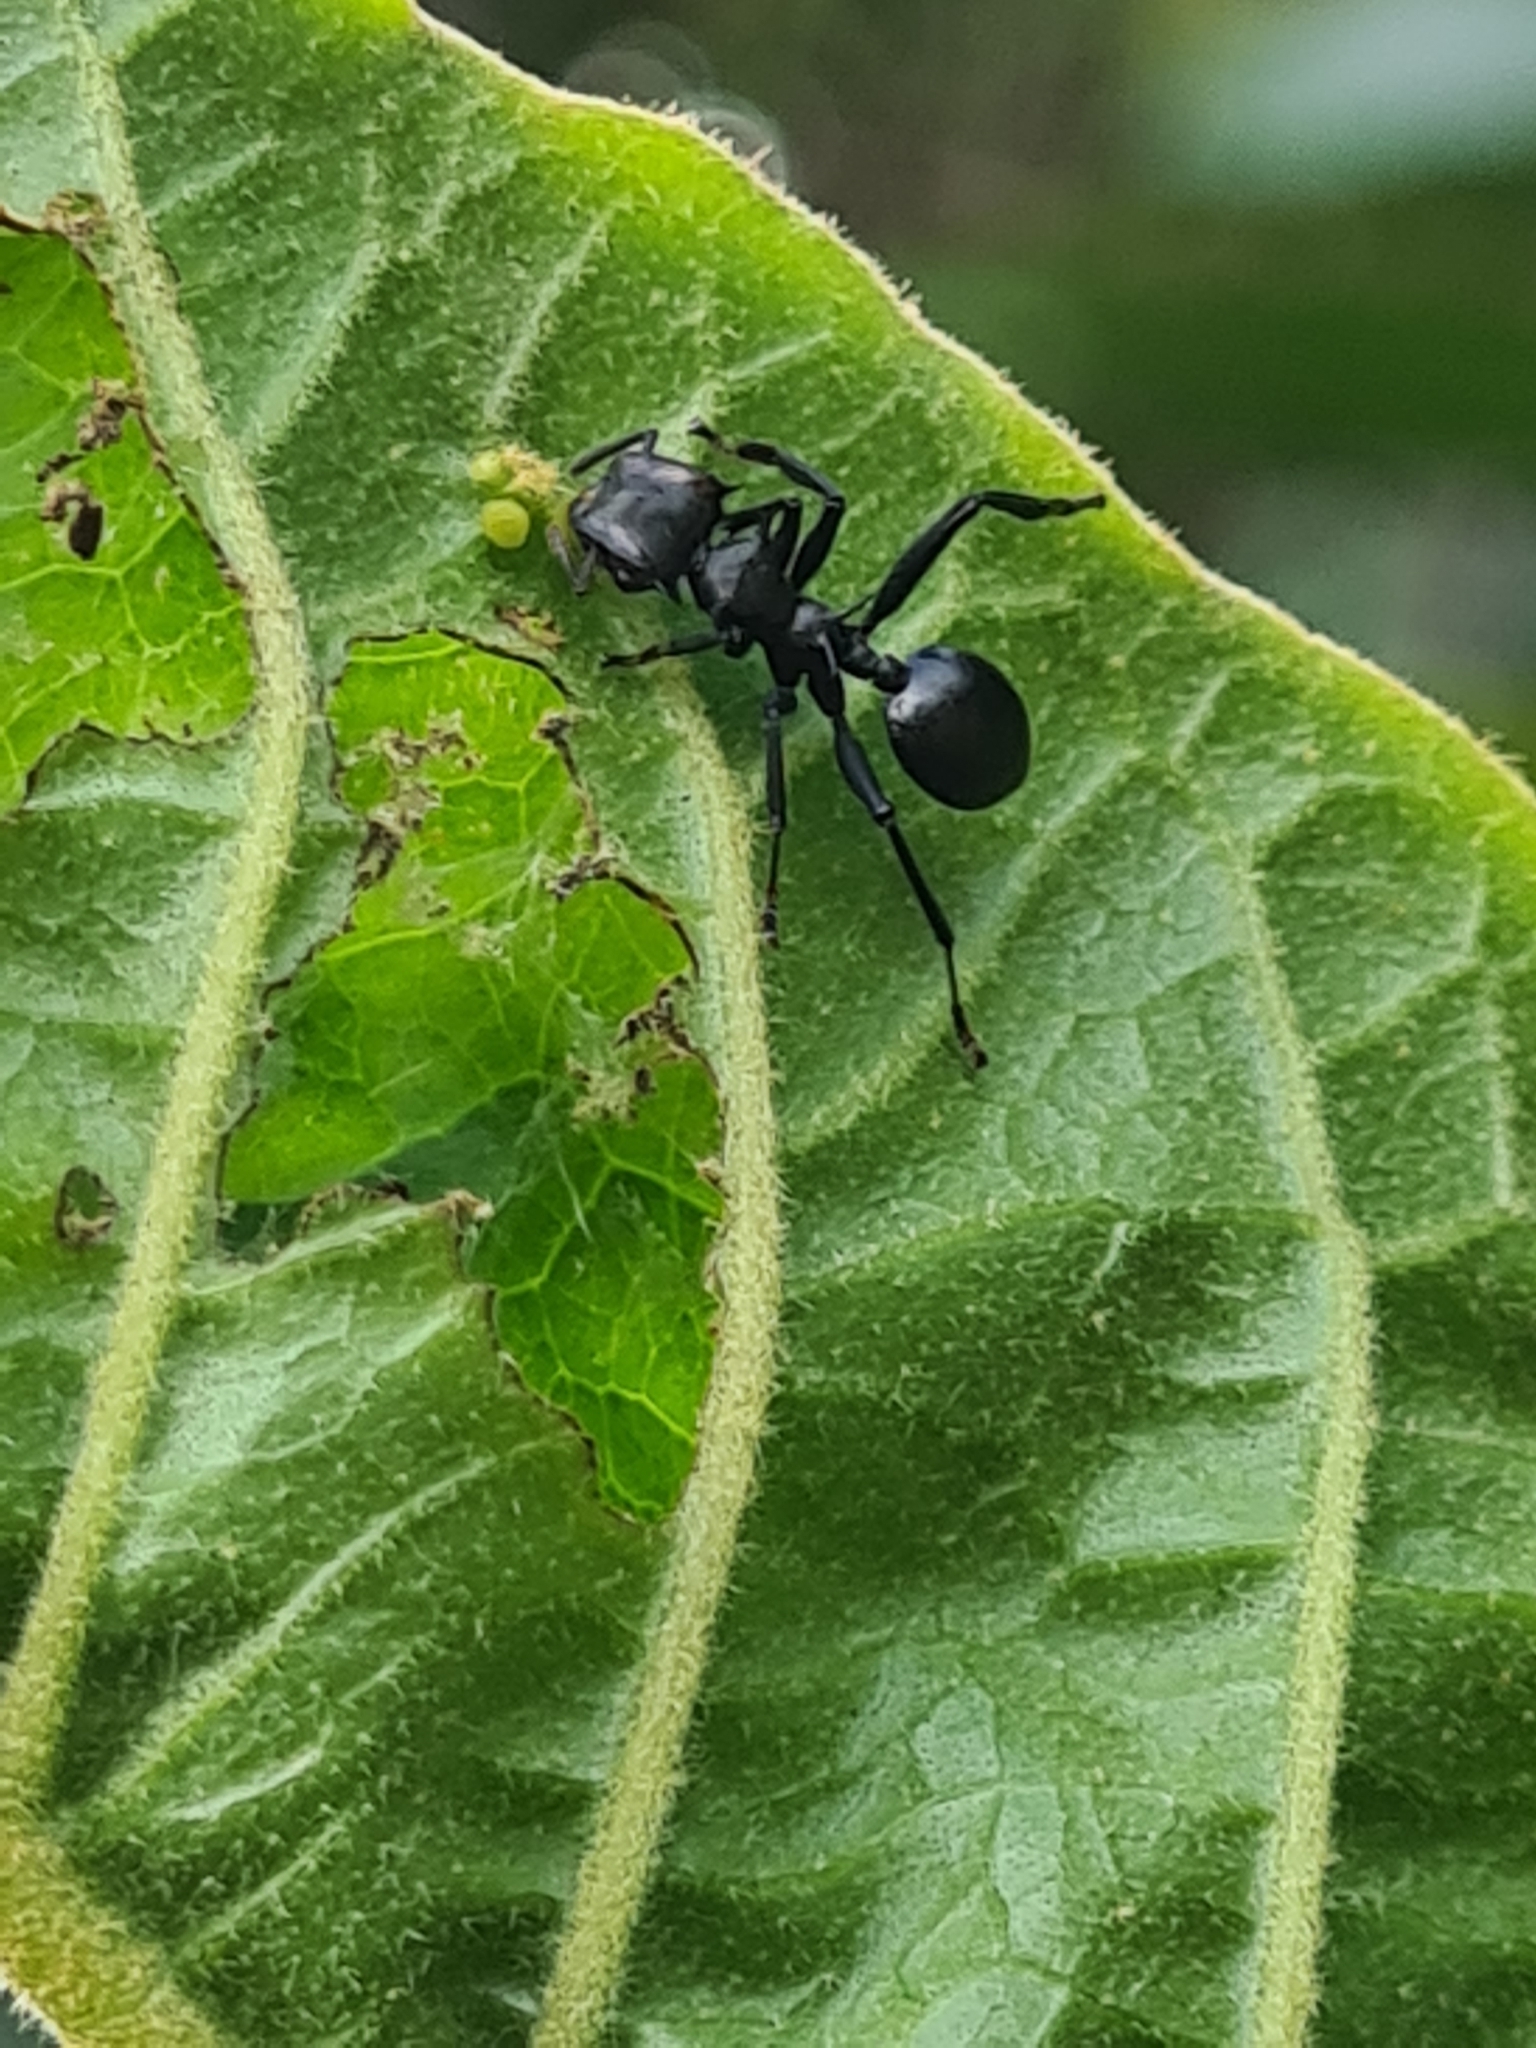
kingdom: Animalia
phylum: Arthropoda
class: Insecta
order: Hymenoptera
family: Formicidae
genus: Cephalotes
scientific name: Cephalotes atratus
